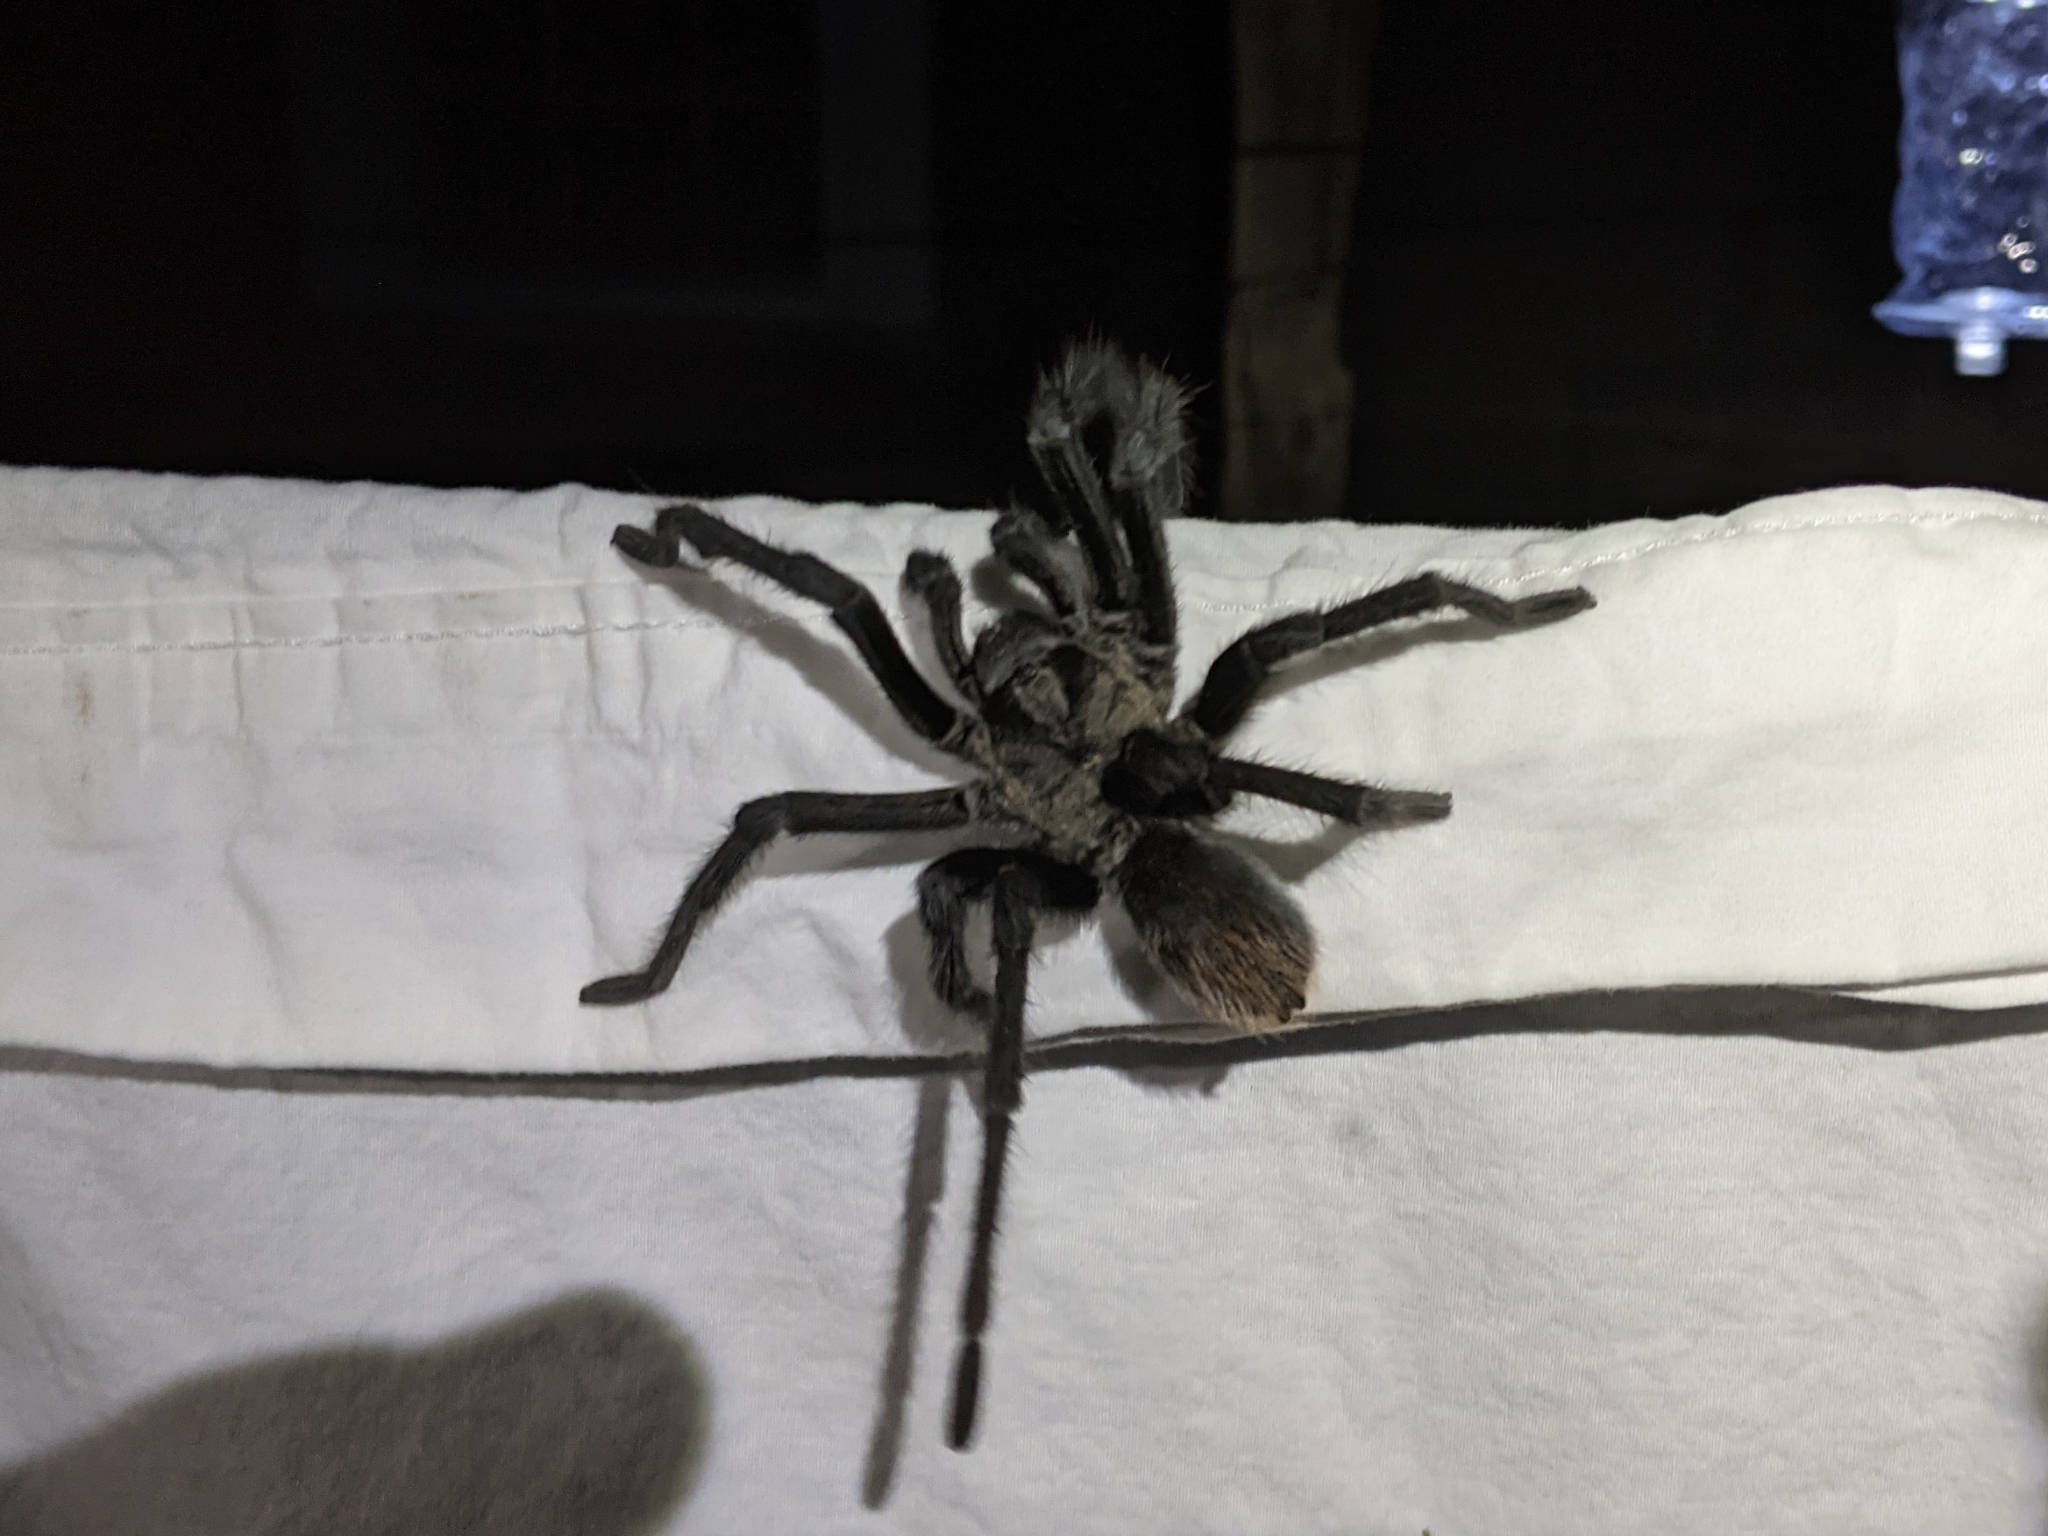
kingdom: Animalia
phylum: Arthropoda
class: Arachnida
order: Araneae
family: Theraphosidae
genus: Aphonopelma
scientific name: Aphonopelma gabeli
